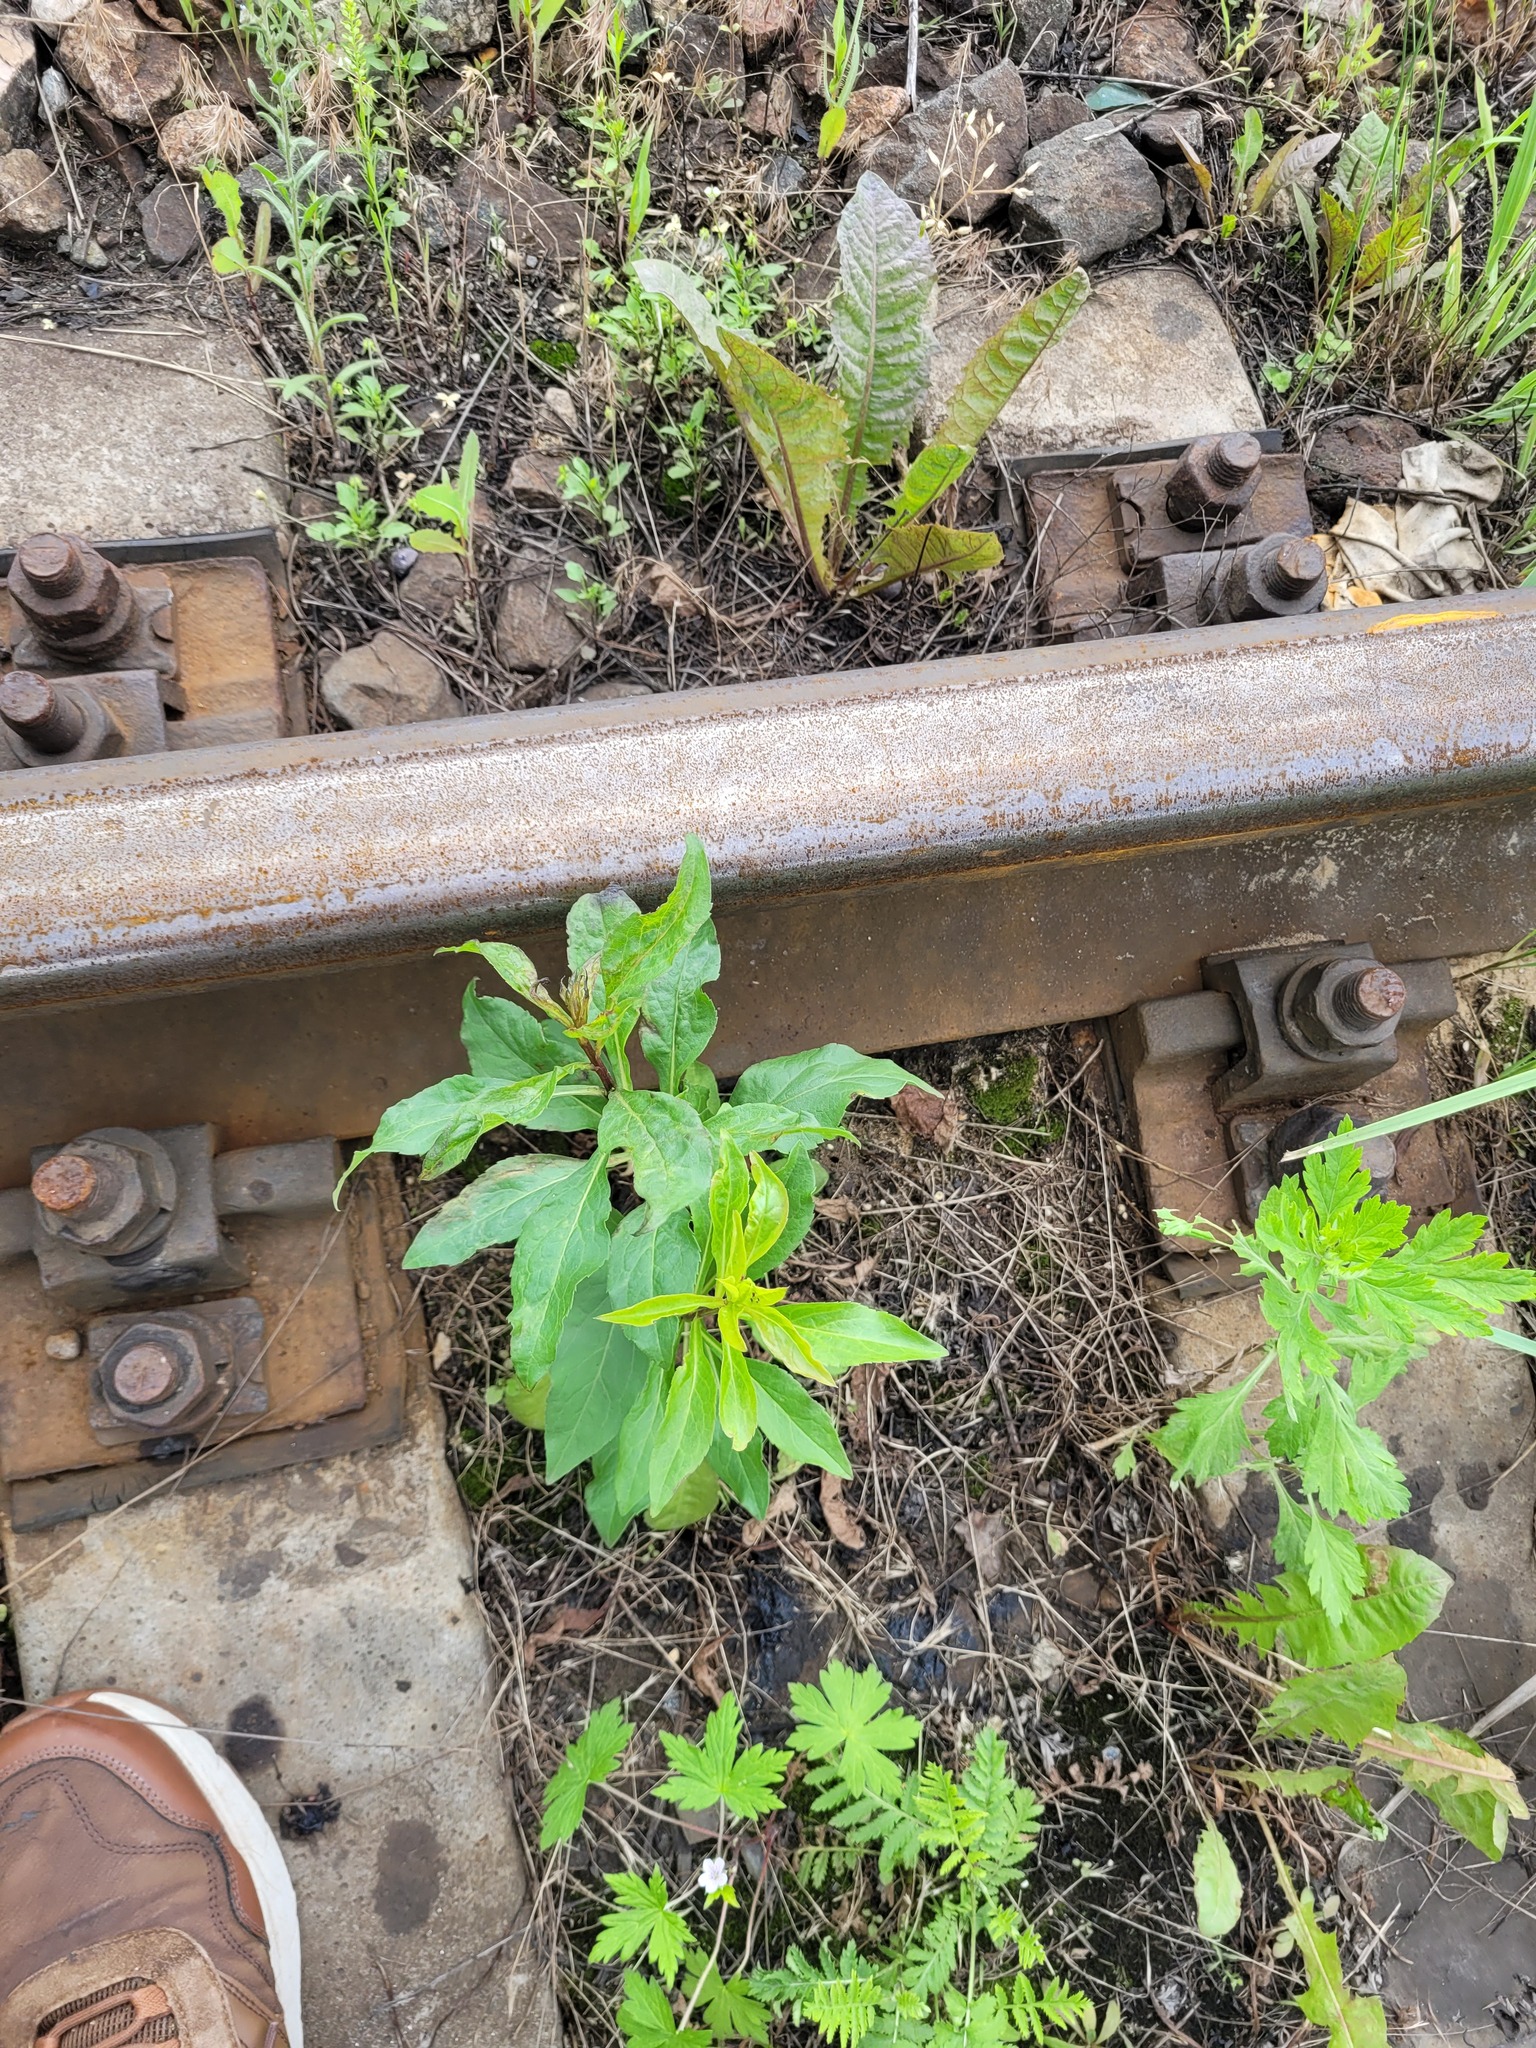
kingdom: Plantae
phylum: Tracheophyta
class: Magnoliopsida
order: Asterales
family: Asteraceae
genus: Solidago
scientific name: Solidago virgaurea
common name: Goldenrod
